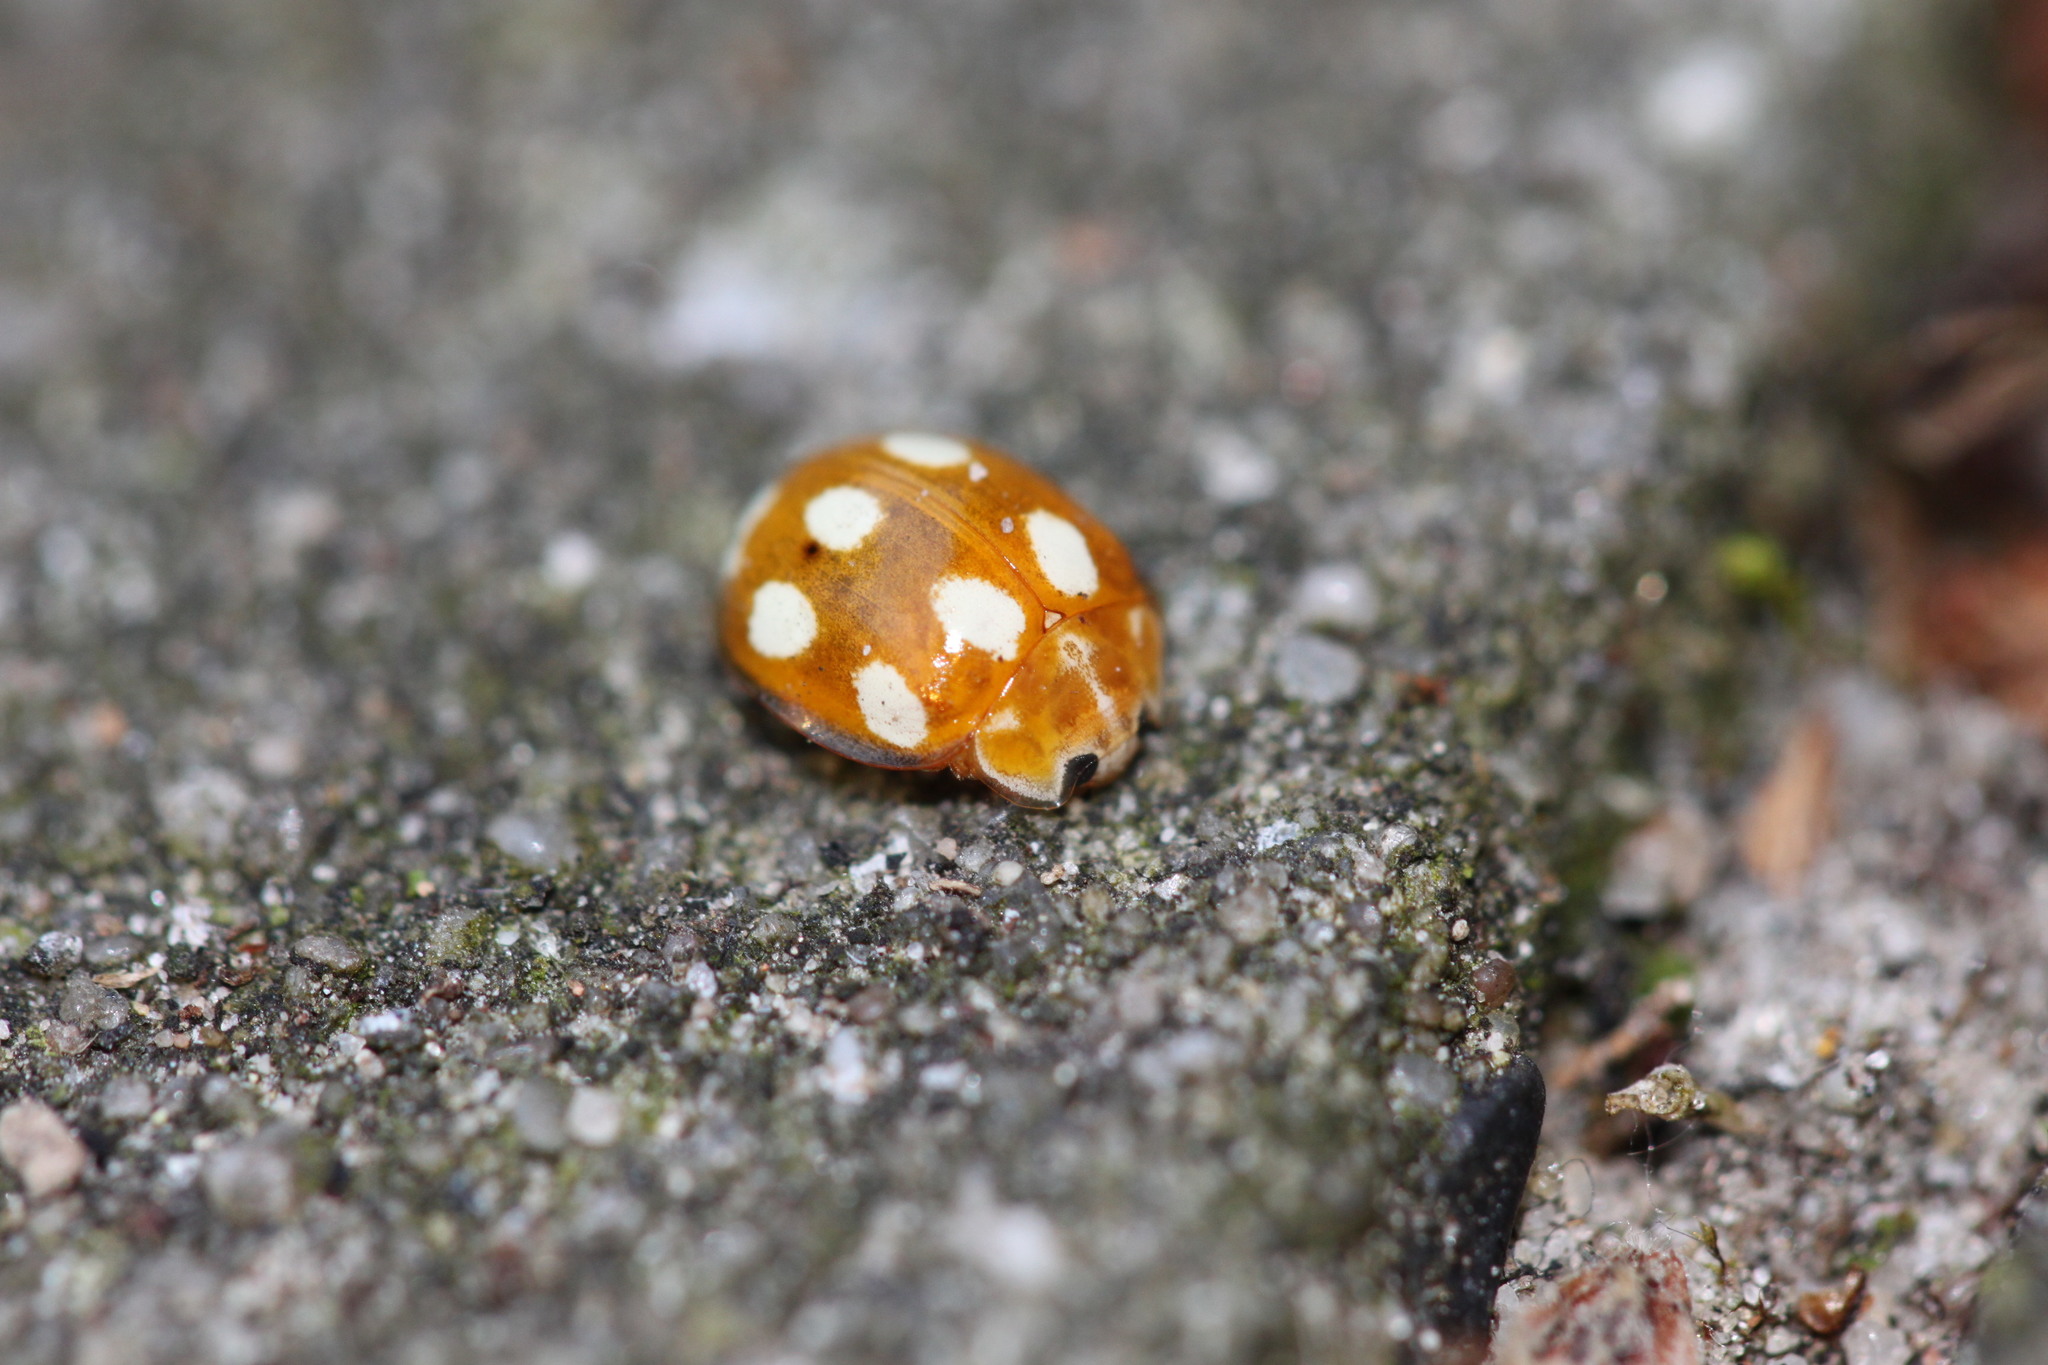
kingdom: Animalia
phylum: Arthropoda
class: Insecta
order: Coleoptera
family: Coccinellidae
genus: Calvia
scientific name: Calvia decemguttata
